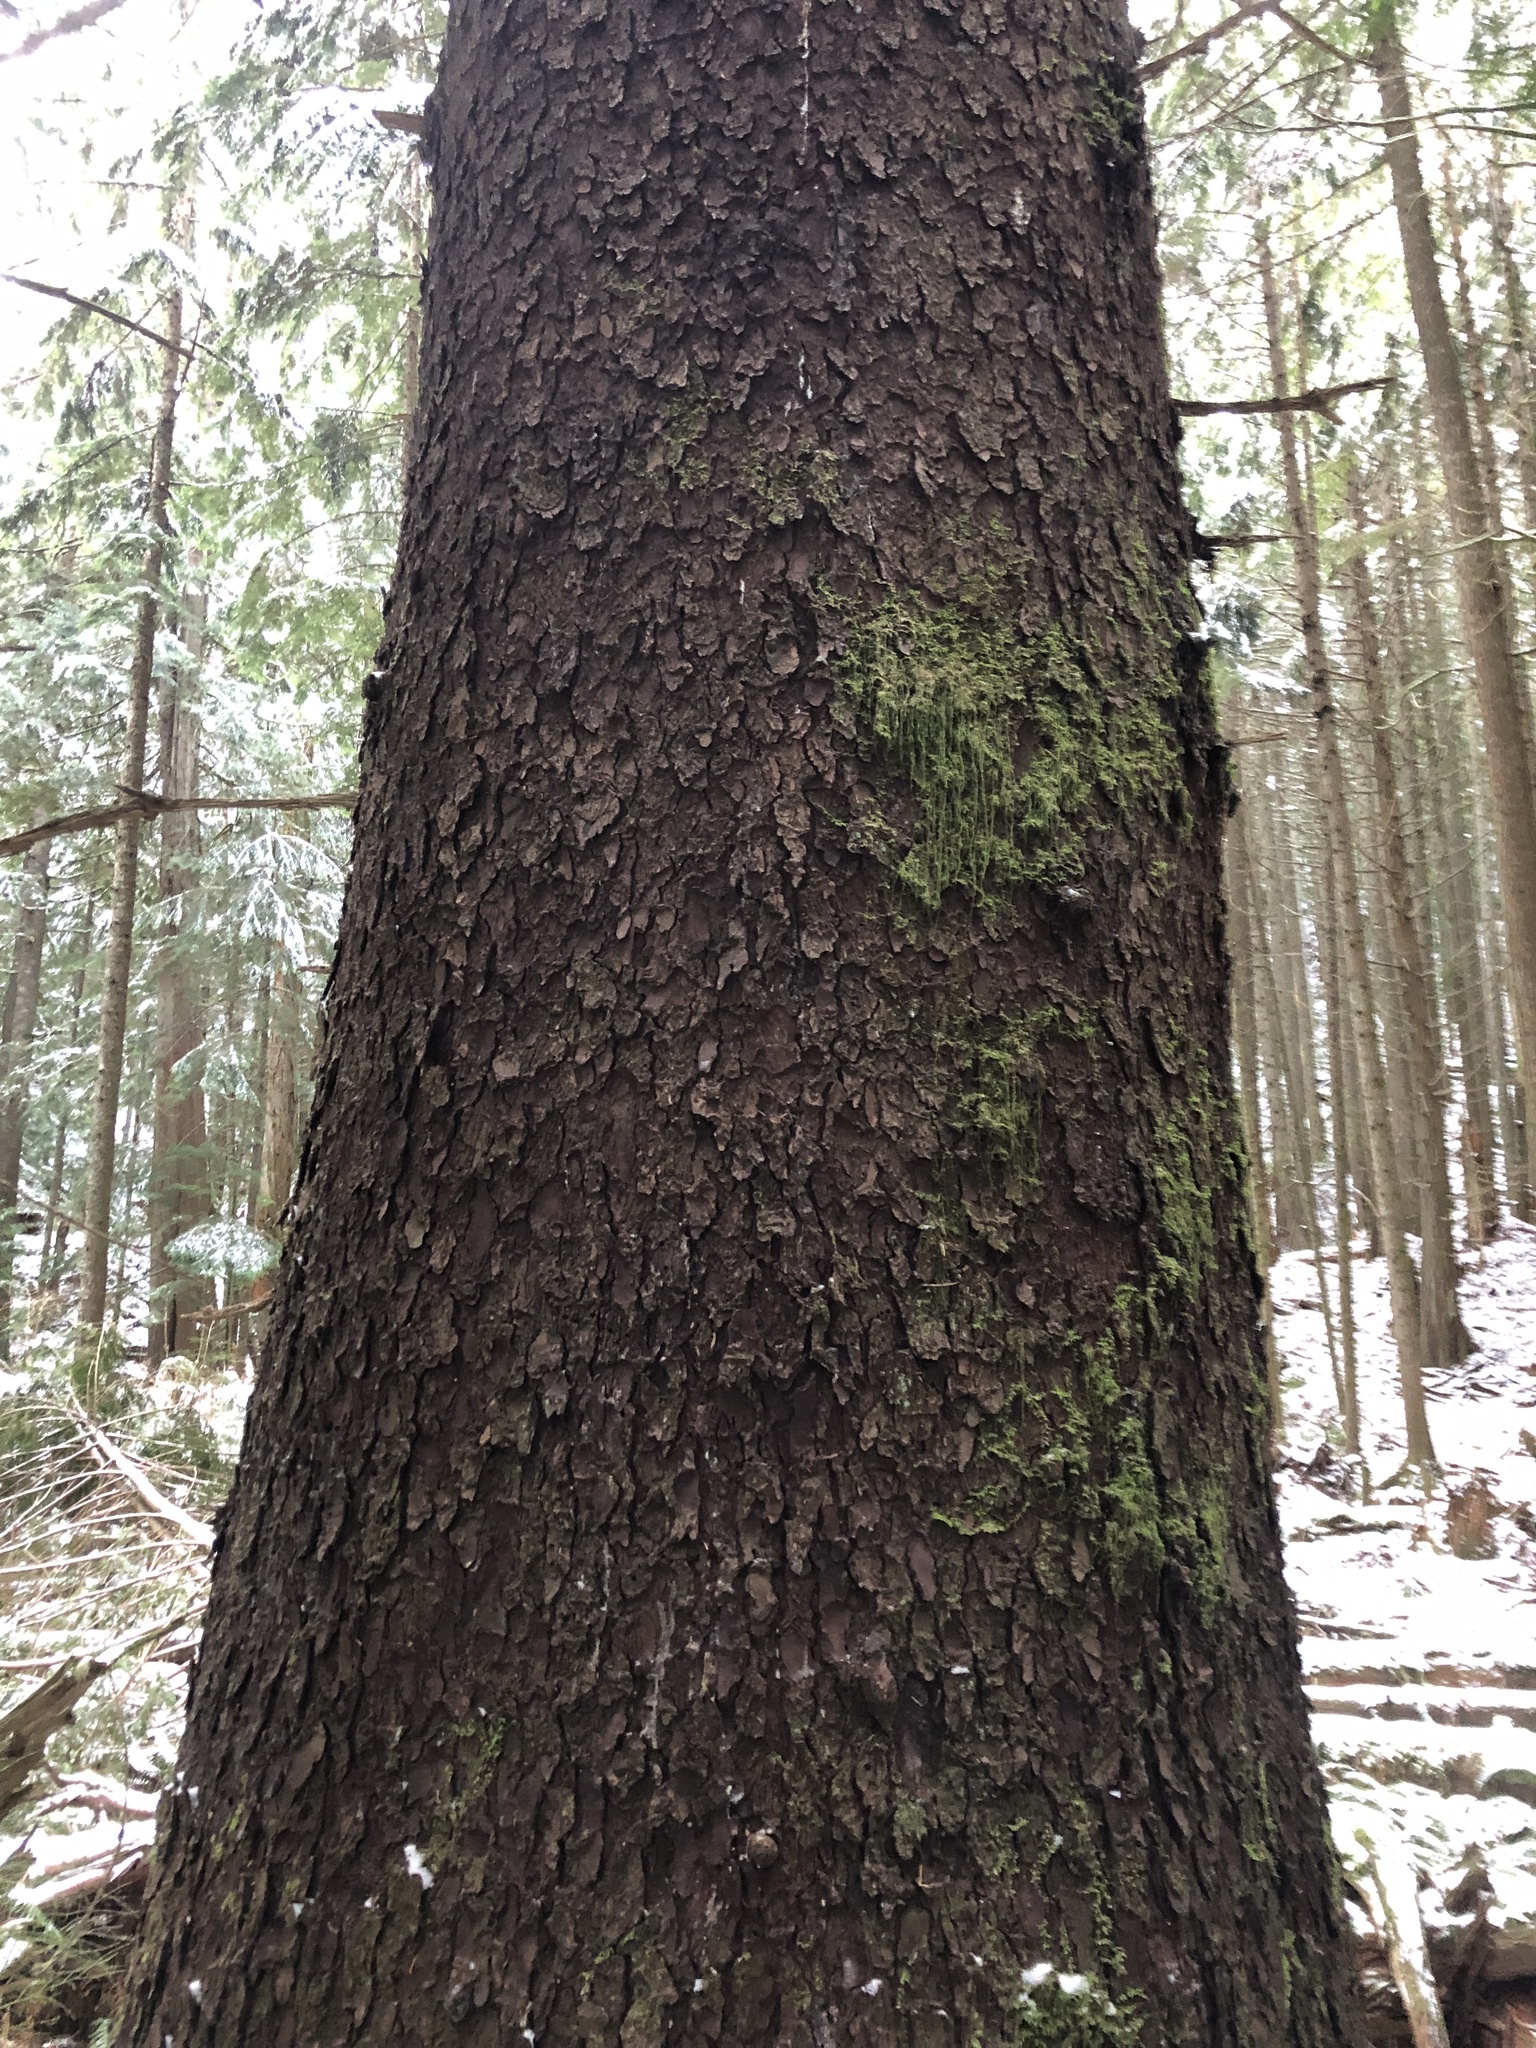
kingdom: Plantae
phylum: Tracheophyta
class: Pinopsida
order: Pinales
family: Pinaceae
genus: Picea
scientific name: Picea sitchensis
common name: Sitka spruce
